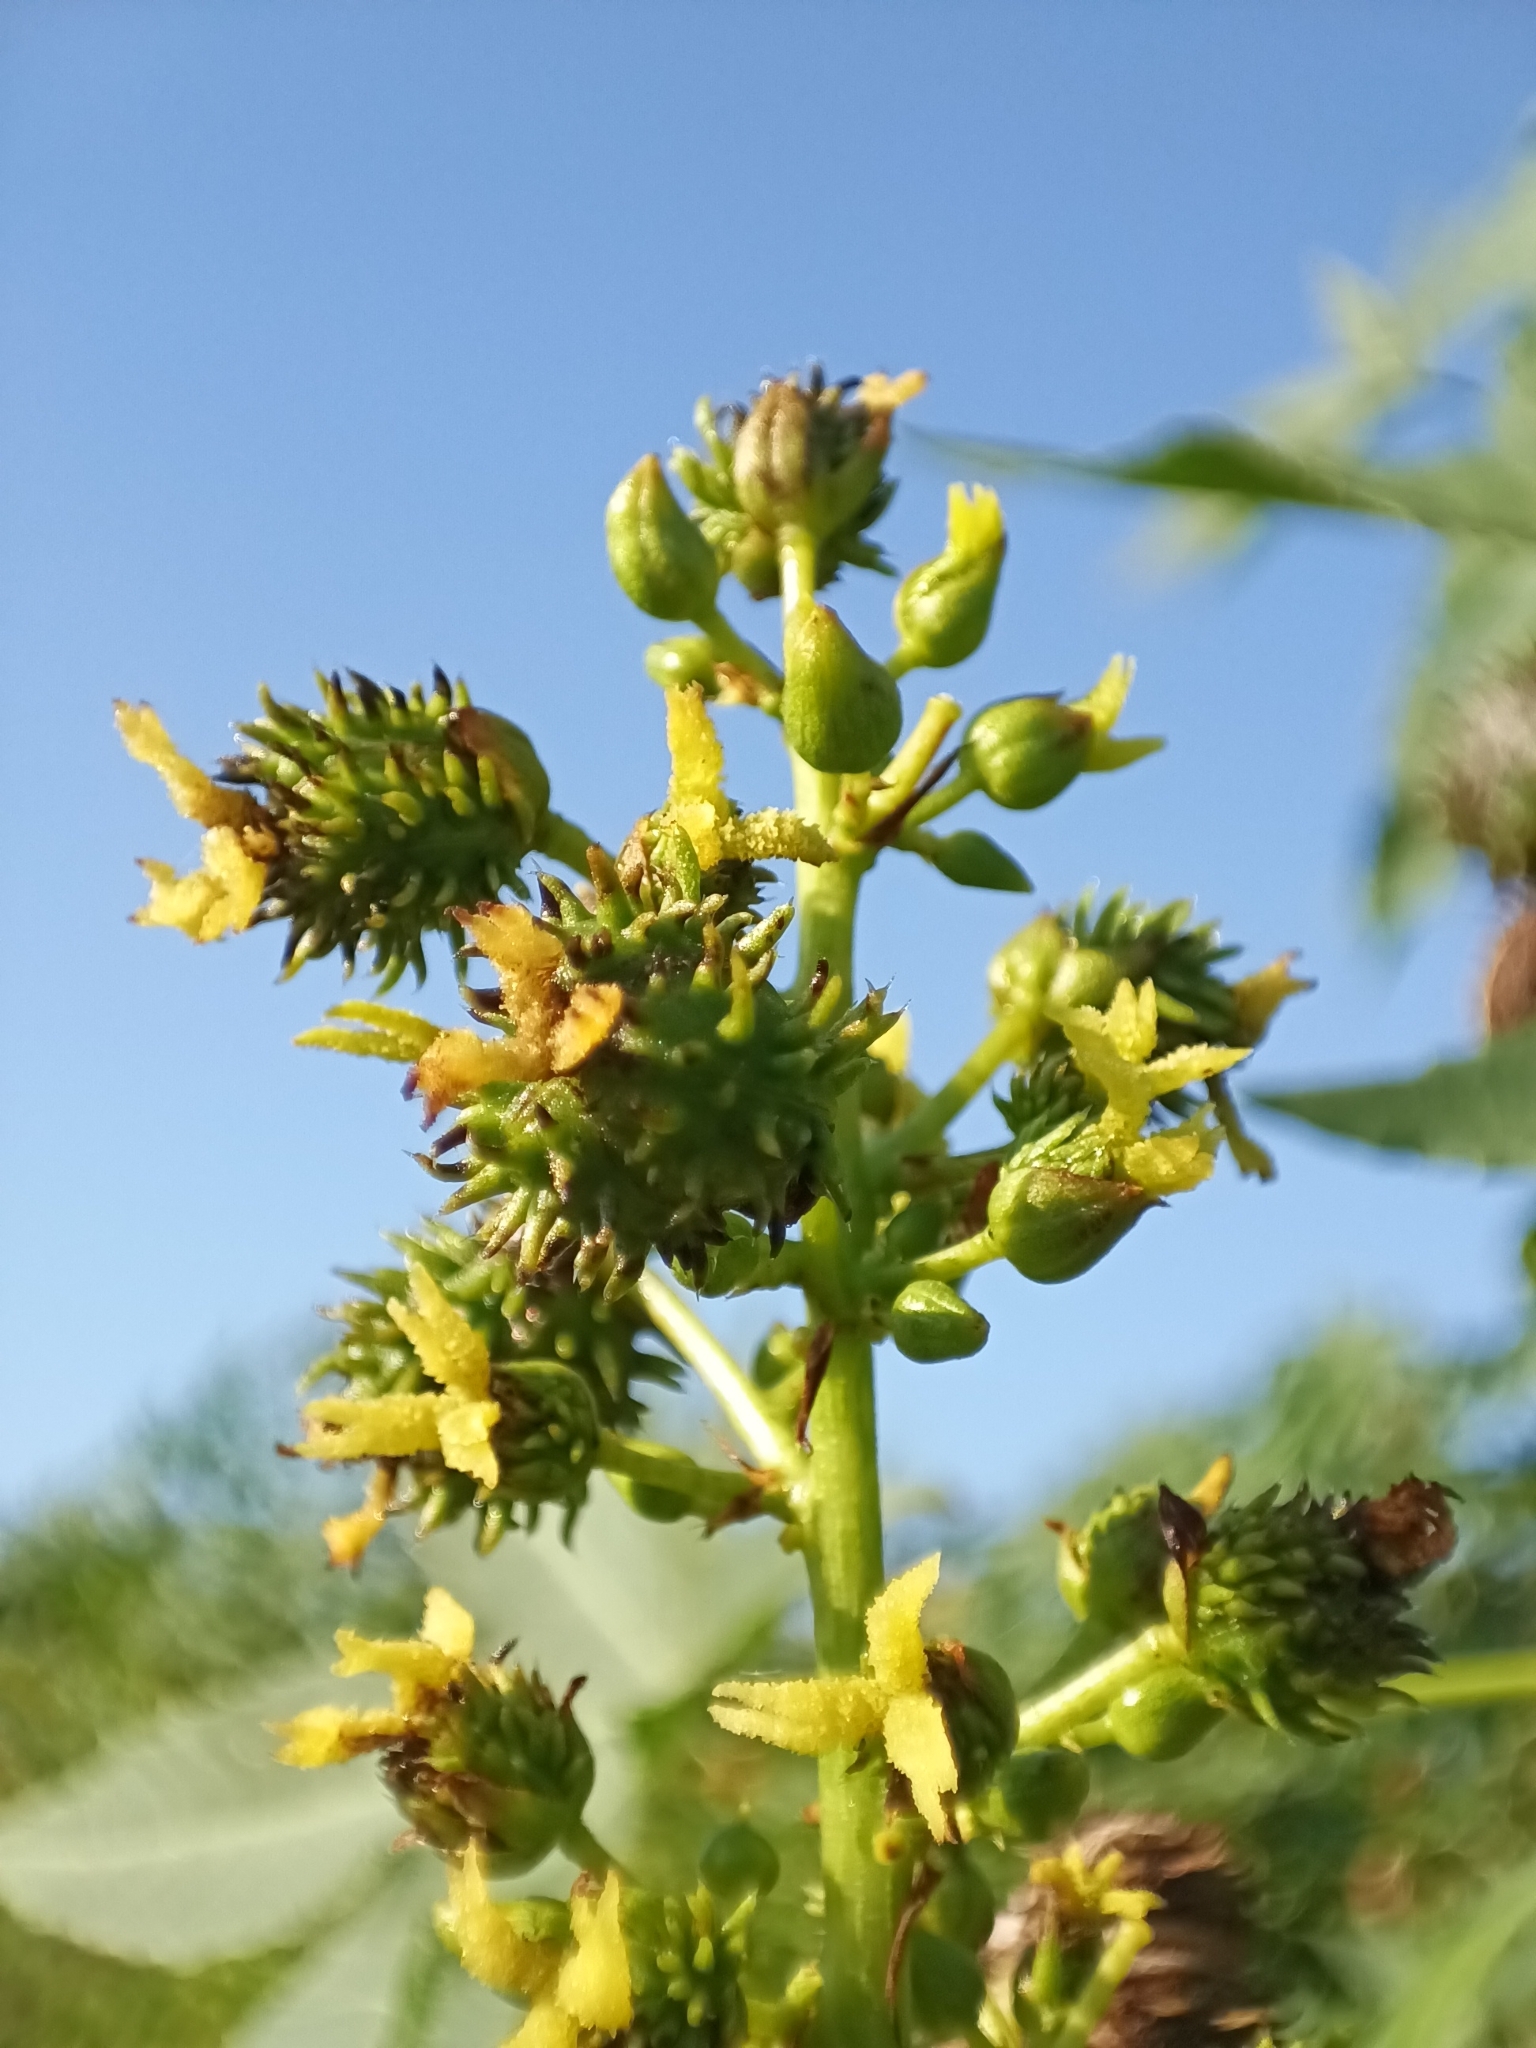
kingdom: Plantae
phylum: Tracheophyta
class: Magnoliopsida
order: Malpighiales
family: Euphorbiaceae
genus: Ricinus
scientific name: Ricinus communis
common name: Castor-oil-plant
